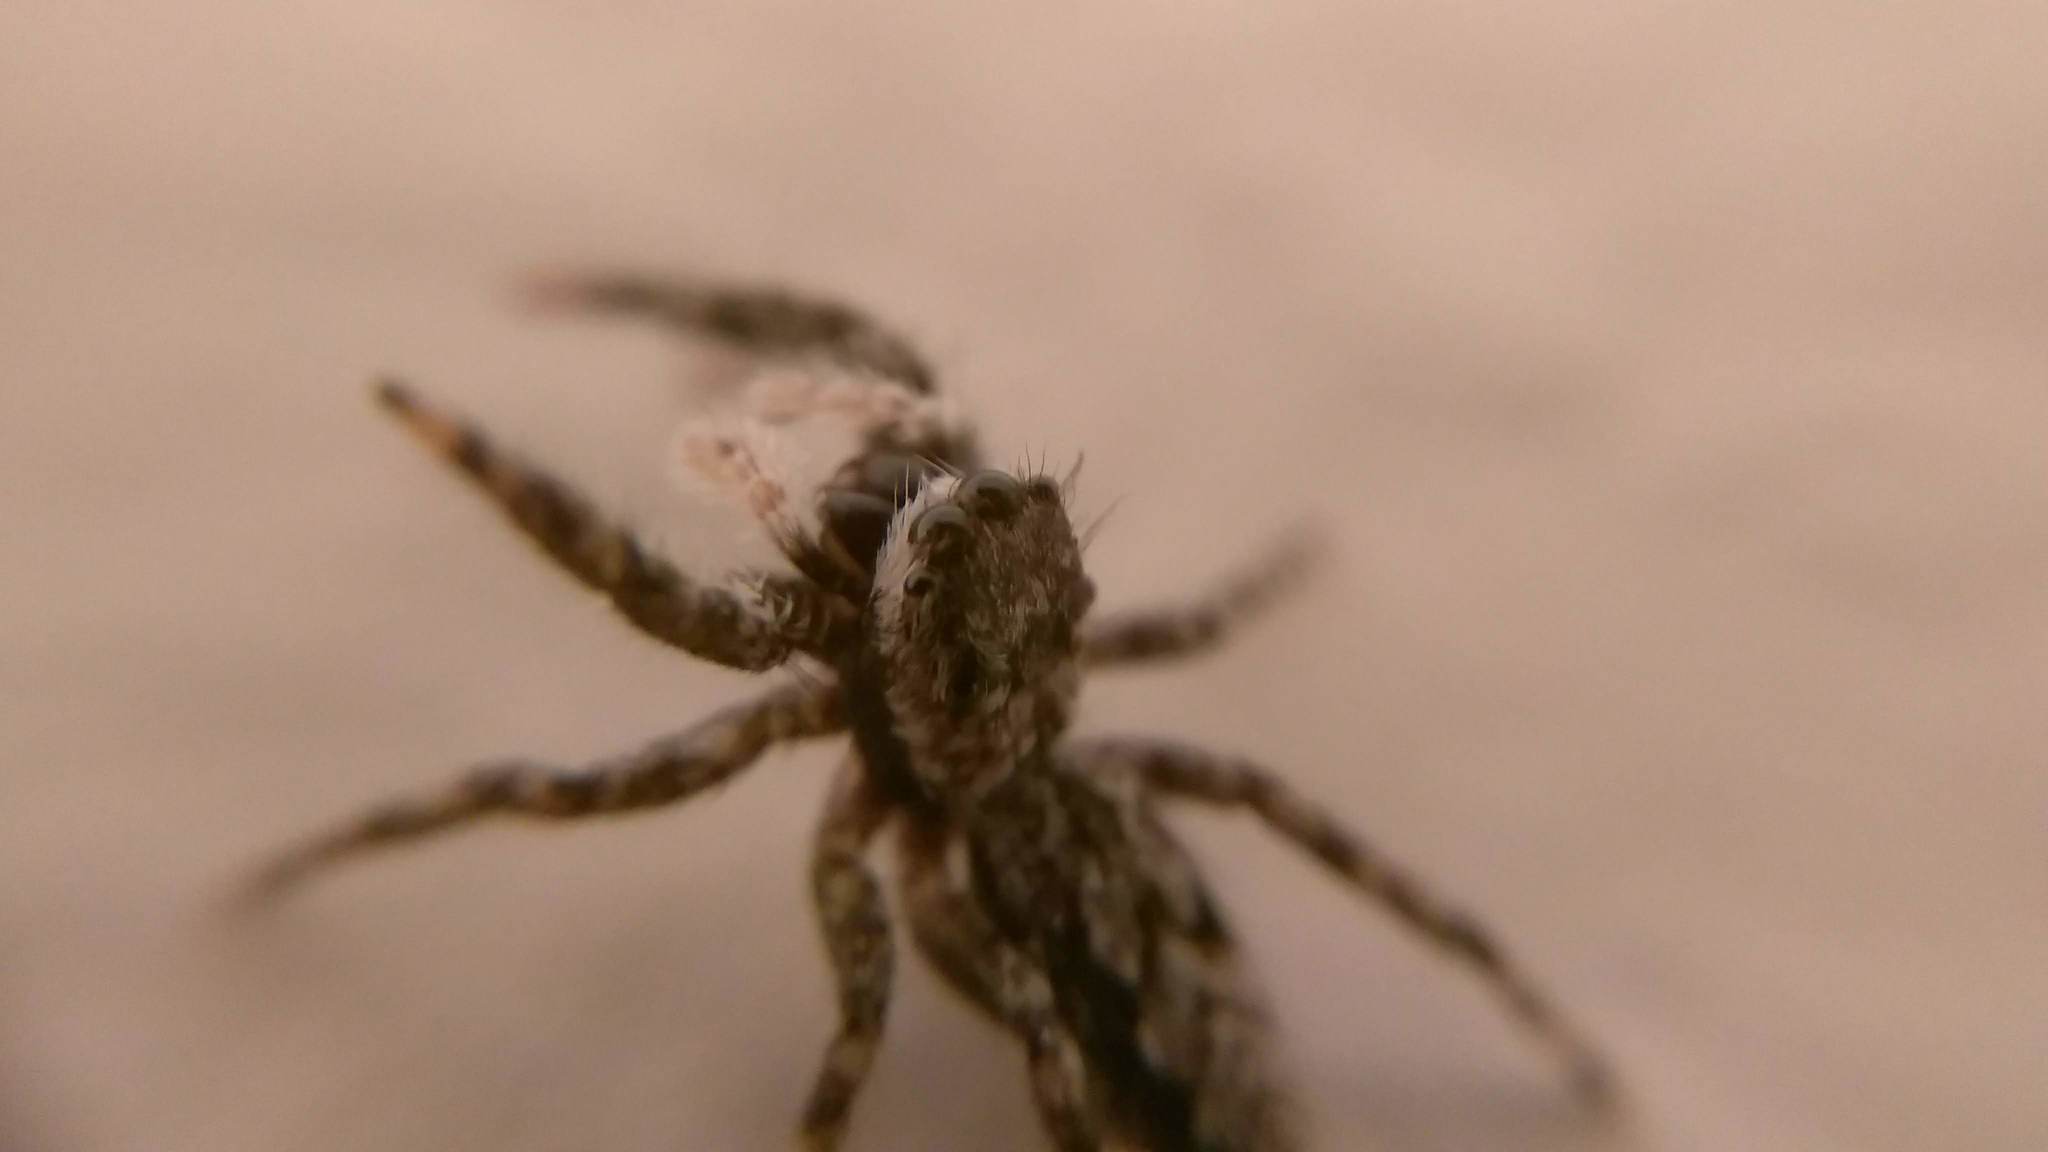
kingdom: Animalia
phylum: Arthropoda
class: Arachnida
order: Araneae
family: Salticidae
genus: Platycryptus
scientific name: Platycryptus undatus
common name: Tan jumping spider
